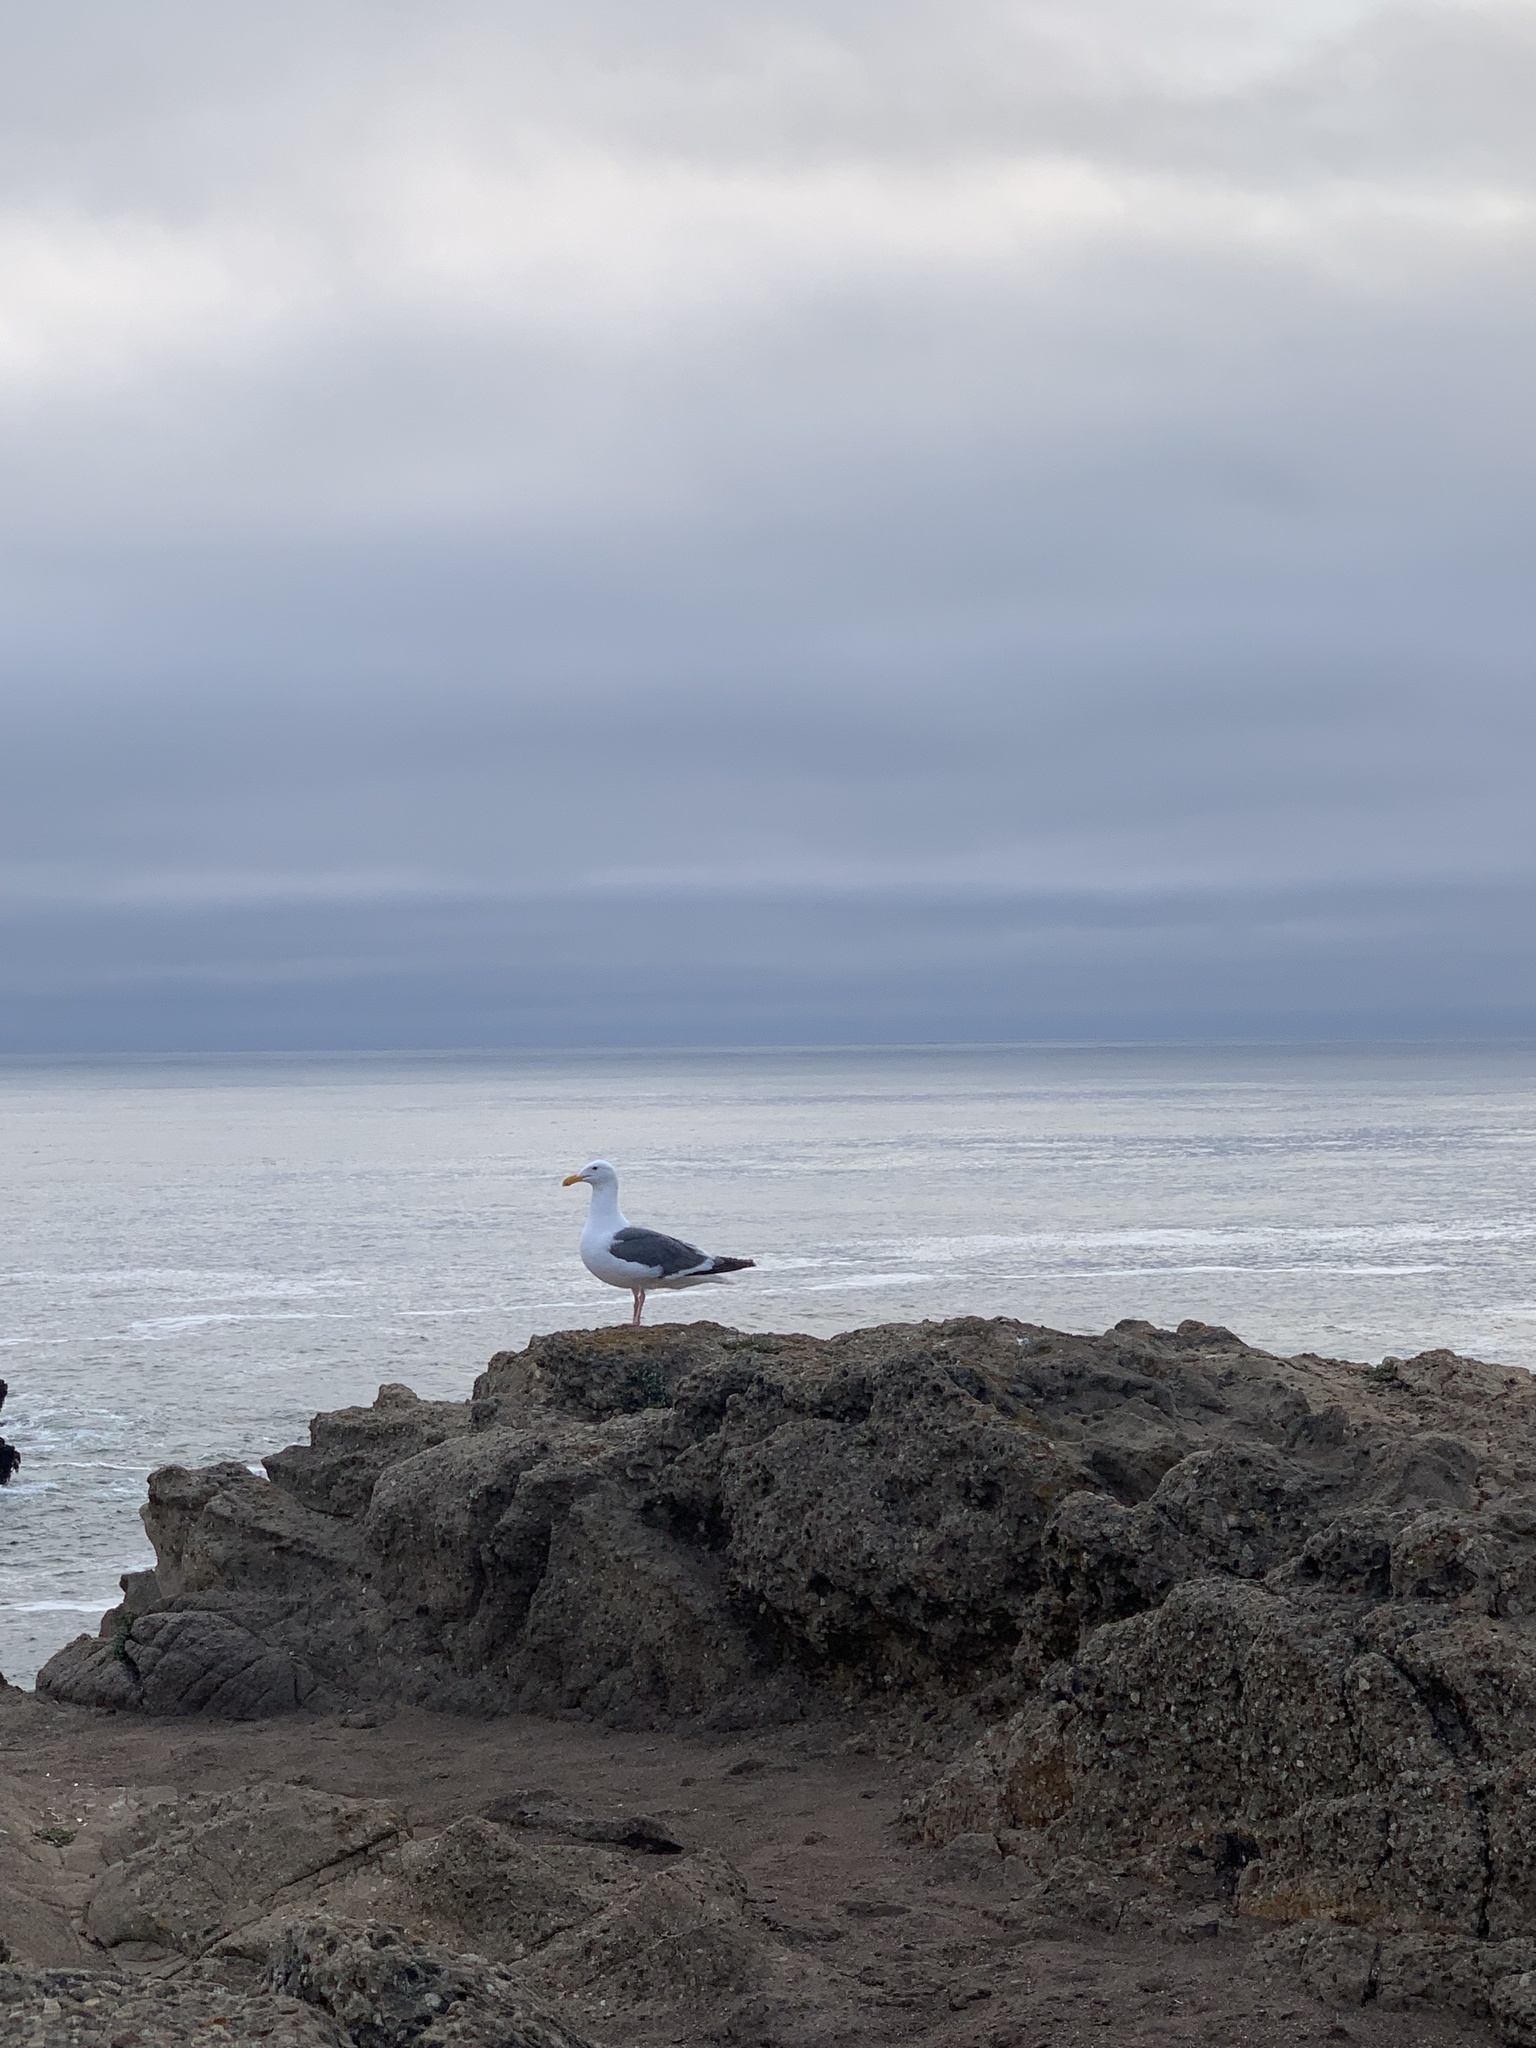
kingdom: Animalia
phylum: Chordata
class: Aves
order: Charadriiformes
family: Laridae
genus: Larus
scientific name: Larus occidentalis
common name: Western gull
